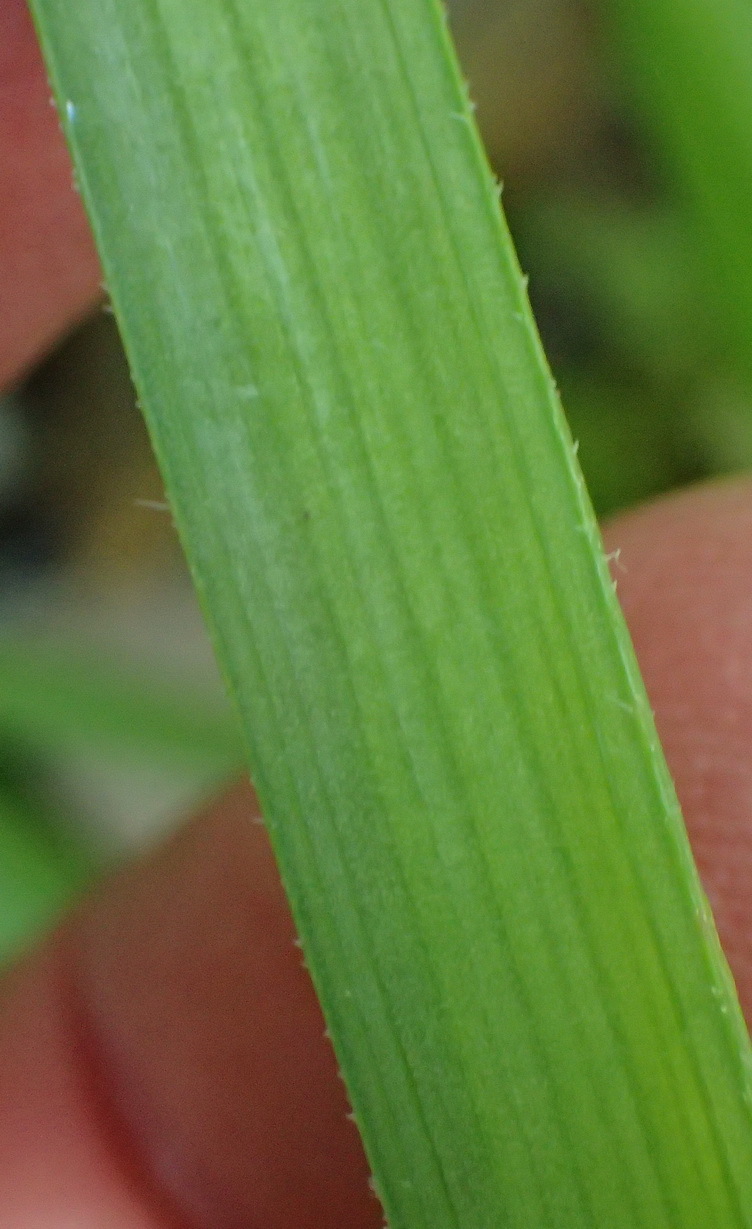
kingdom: Plantae
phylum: Tracheophyta
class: Liliopsida
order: Asparagales
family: Asphodelaceae
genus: Trachyandra
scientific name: Trachyandra ciliata
